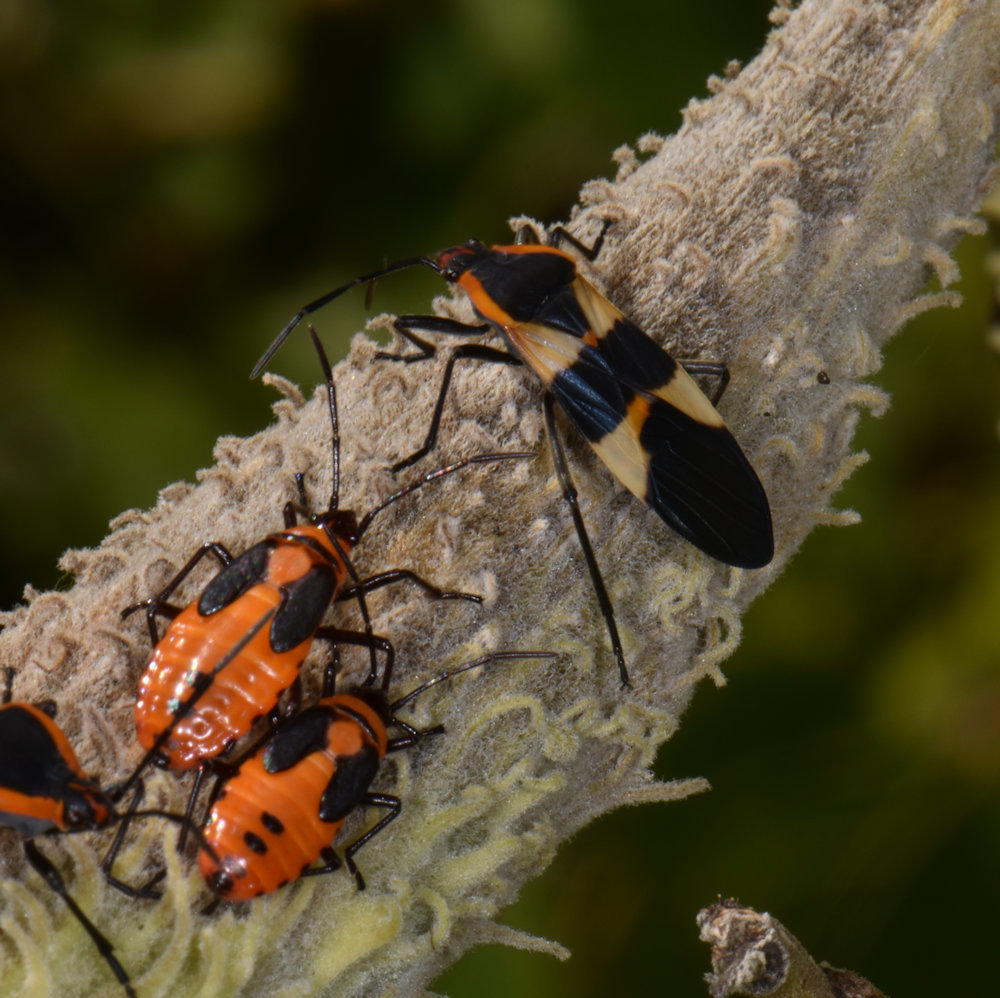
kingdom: Animalia
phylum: Arthropoda
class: Insecta
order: Hemiptera
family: Lygaeidae
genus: Oncopeltus
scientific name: Oncopeltus fasciatus
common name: Large milkweed bug
